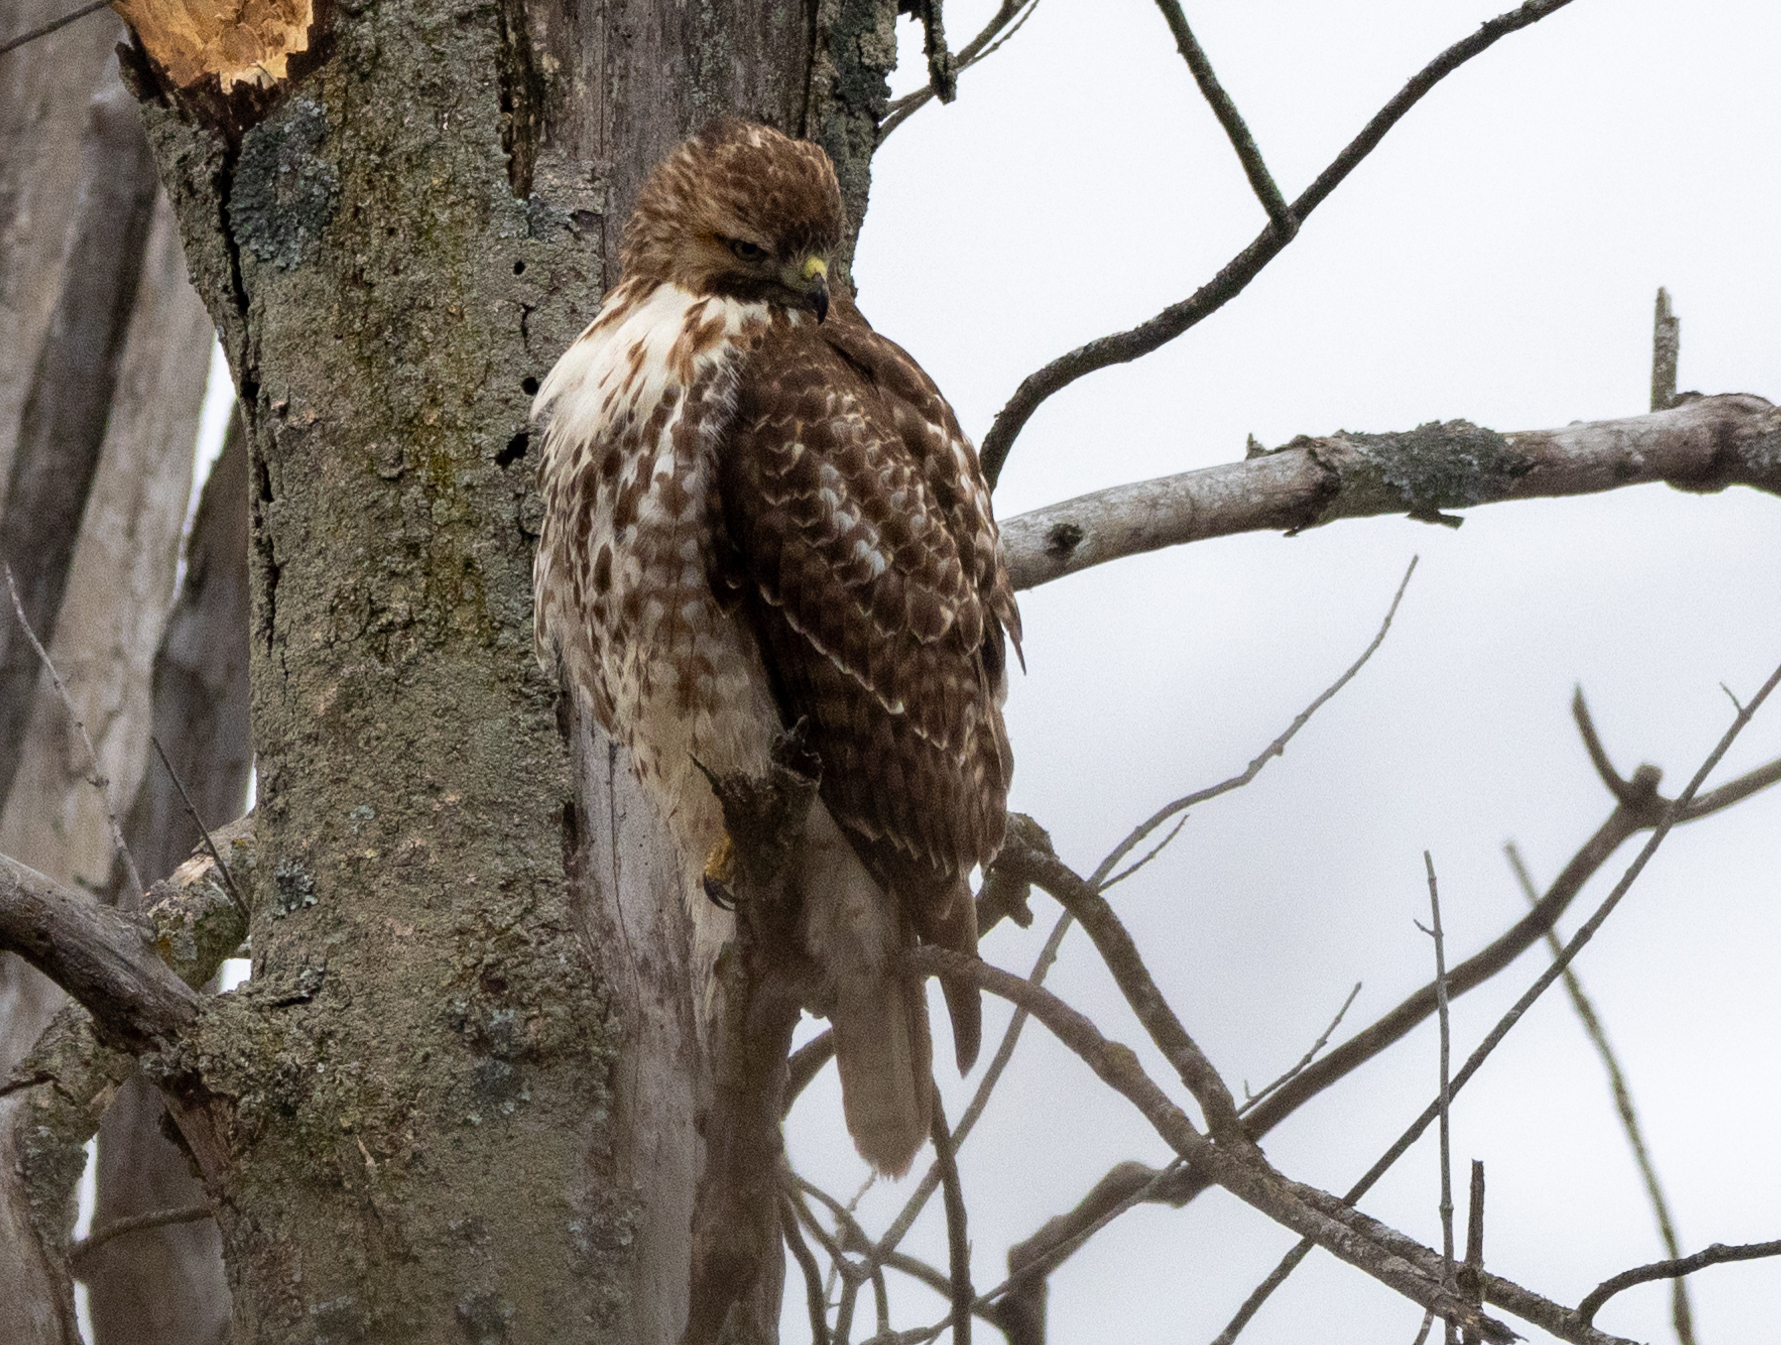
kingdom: Animalia
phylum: Chordata
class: Aves
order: Accipitriformes
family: Accipitridae
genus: Buteo
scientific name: Buteo jamaicensis
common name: Red-tailed hawk
